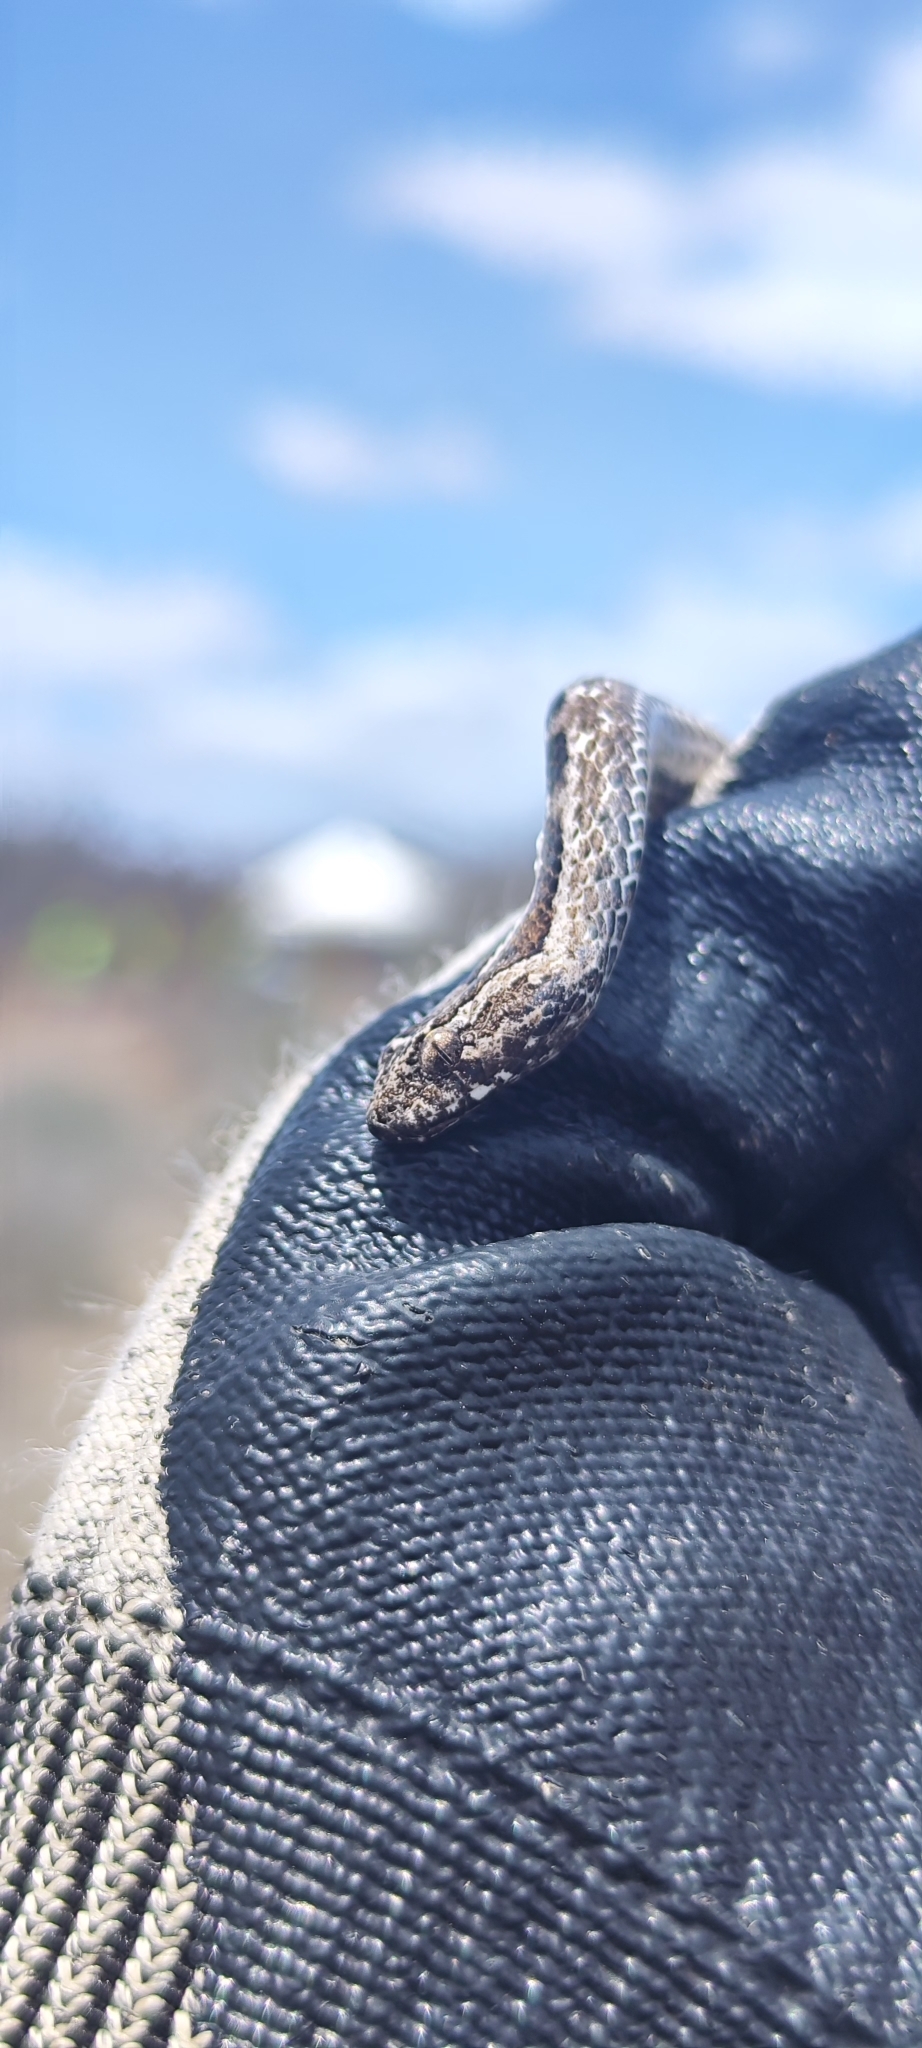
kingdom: Animalia
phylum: Chordata
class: Squamata
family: Colubridae
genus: Dryophylax
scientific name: Dryophylax
